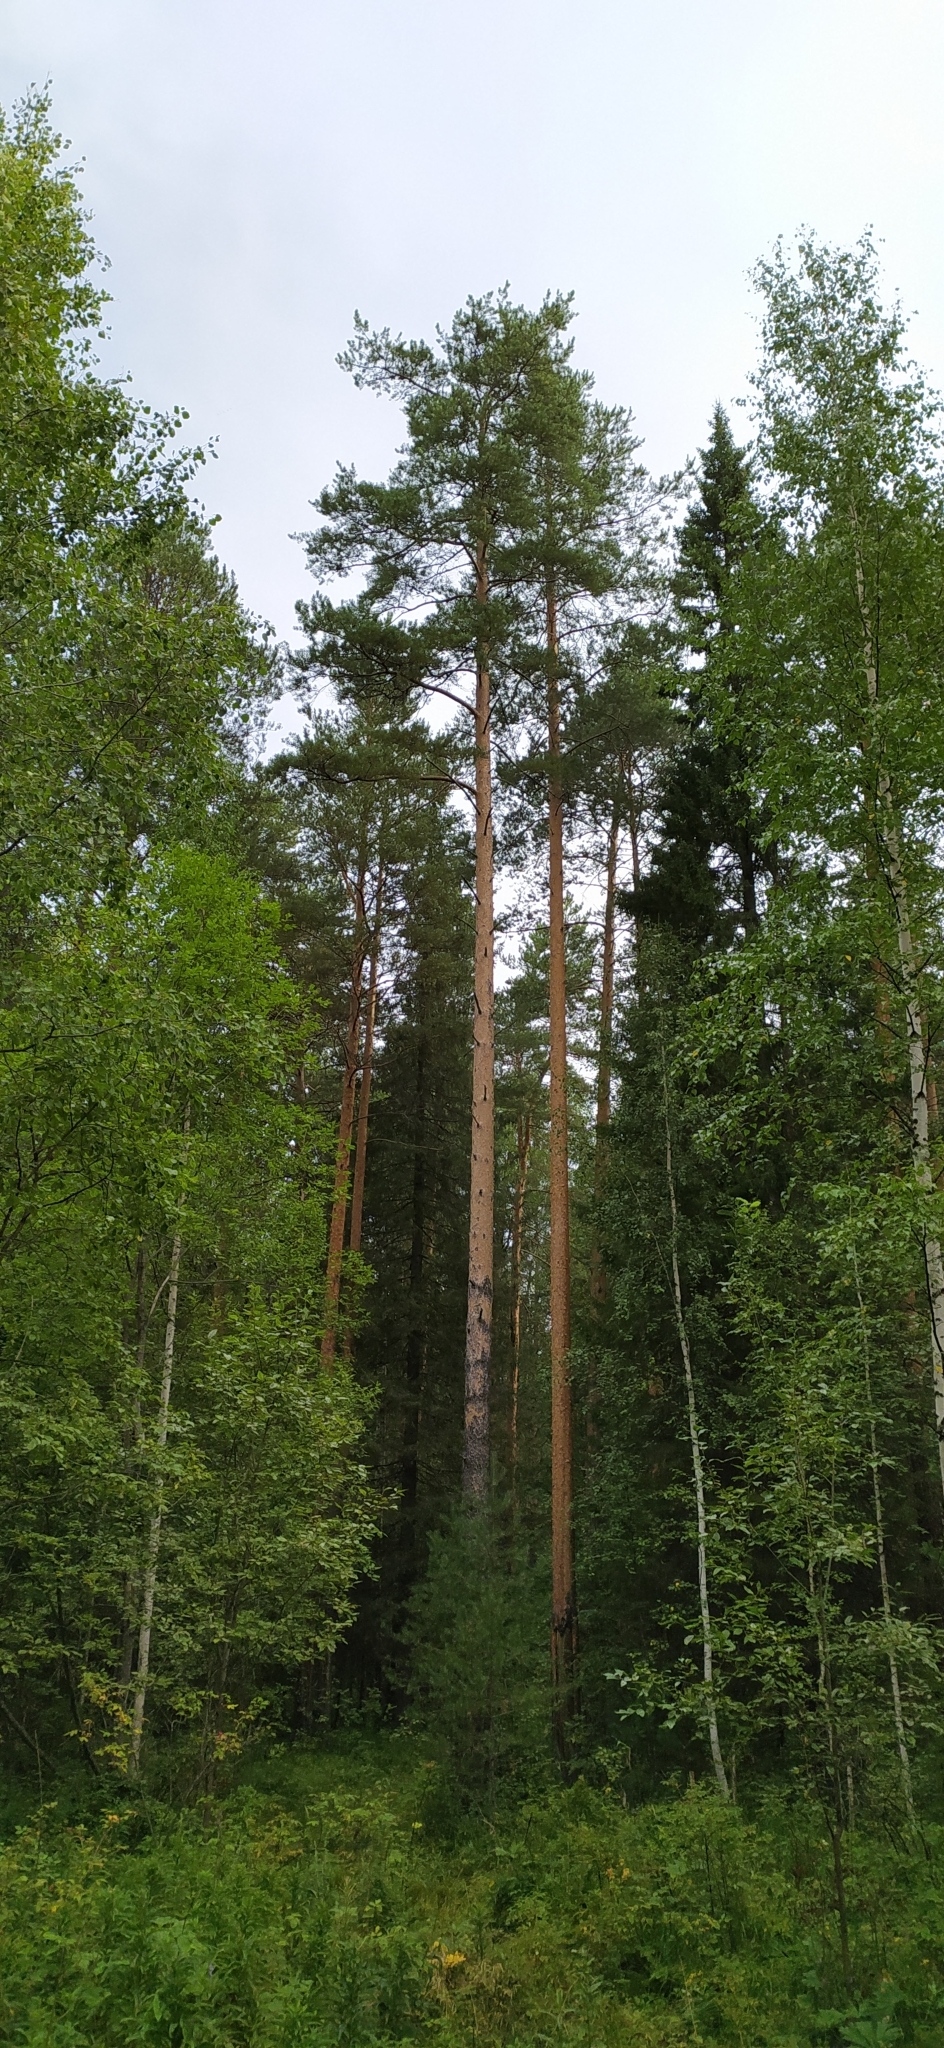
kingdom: Plantae
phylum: Tracheophyta
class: Pinopsida
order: Pinales
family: Pinaceae
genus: Pinus
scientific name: Pinus sylvestris
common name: Scots pine
